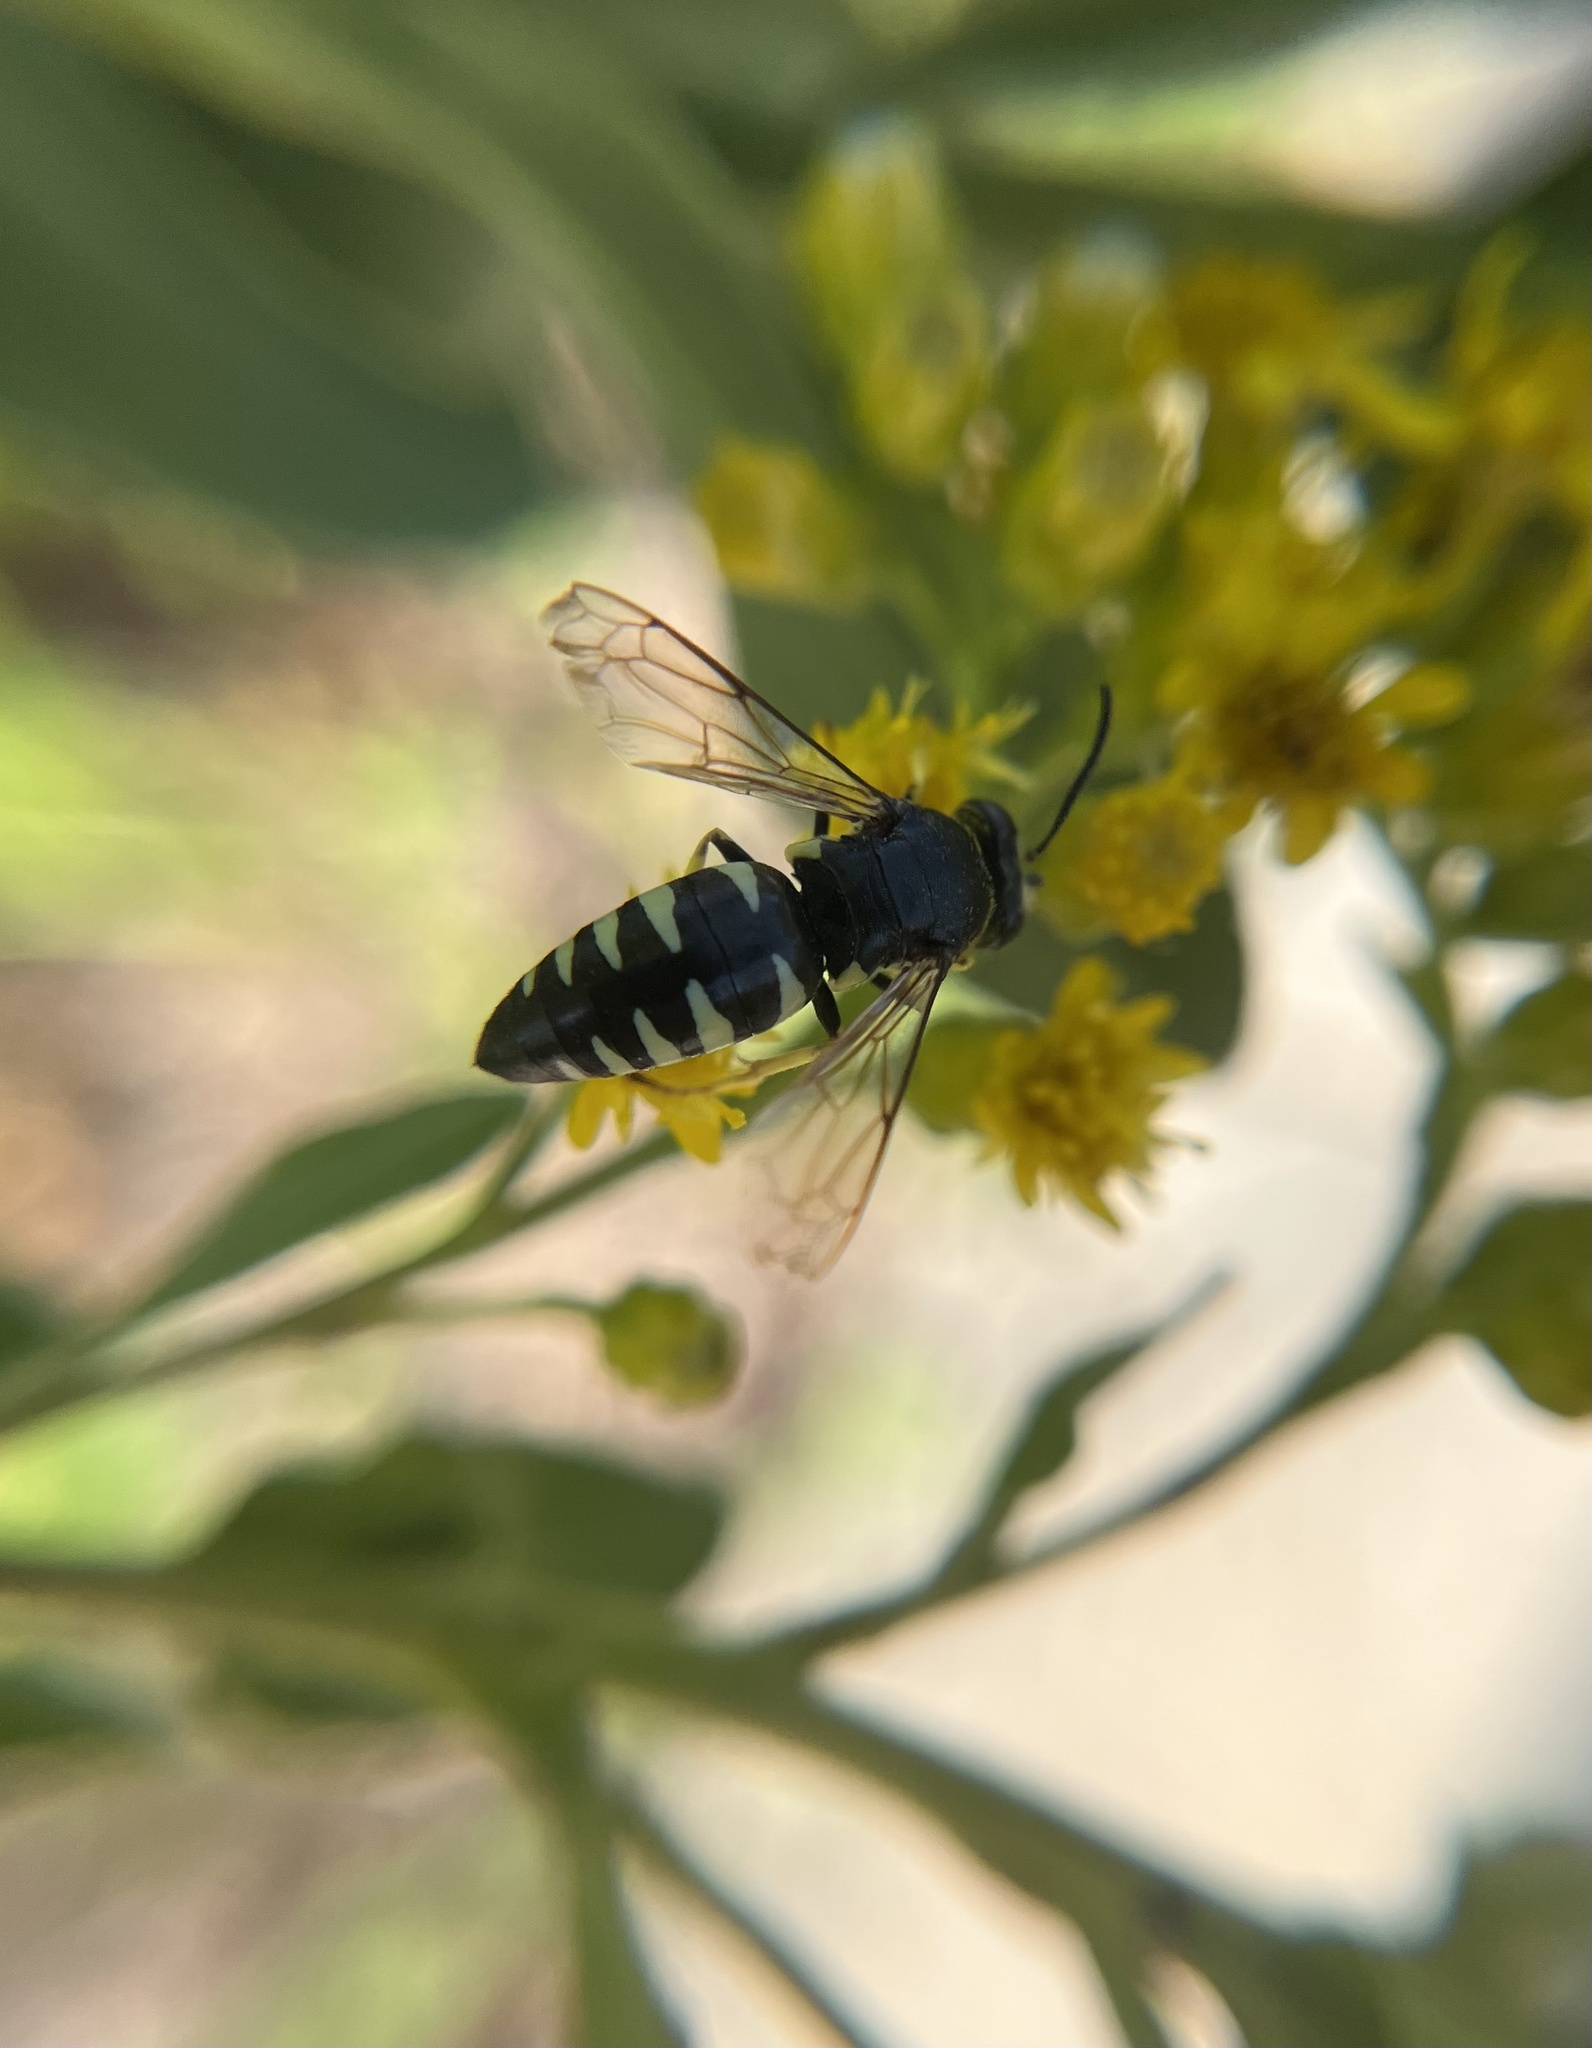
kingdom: Animalia
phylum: Arthropoda
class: Insecta
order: Hymenoptera
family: Crabronidae
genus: Bicyrtes
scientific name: Bicyrtes quadrifasciatus
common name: Four-banded stink bug hunter wasp
